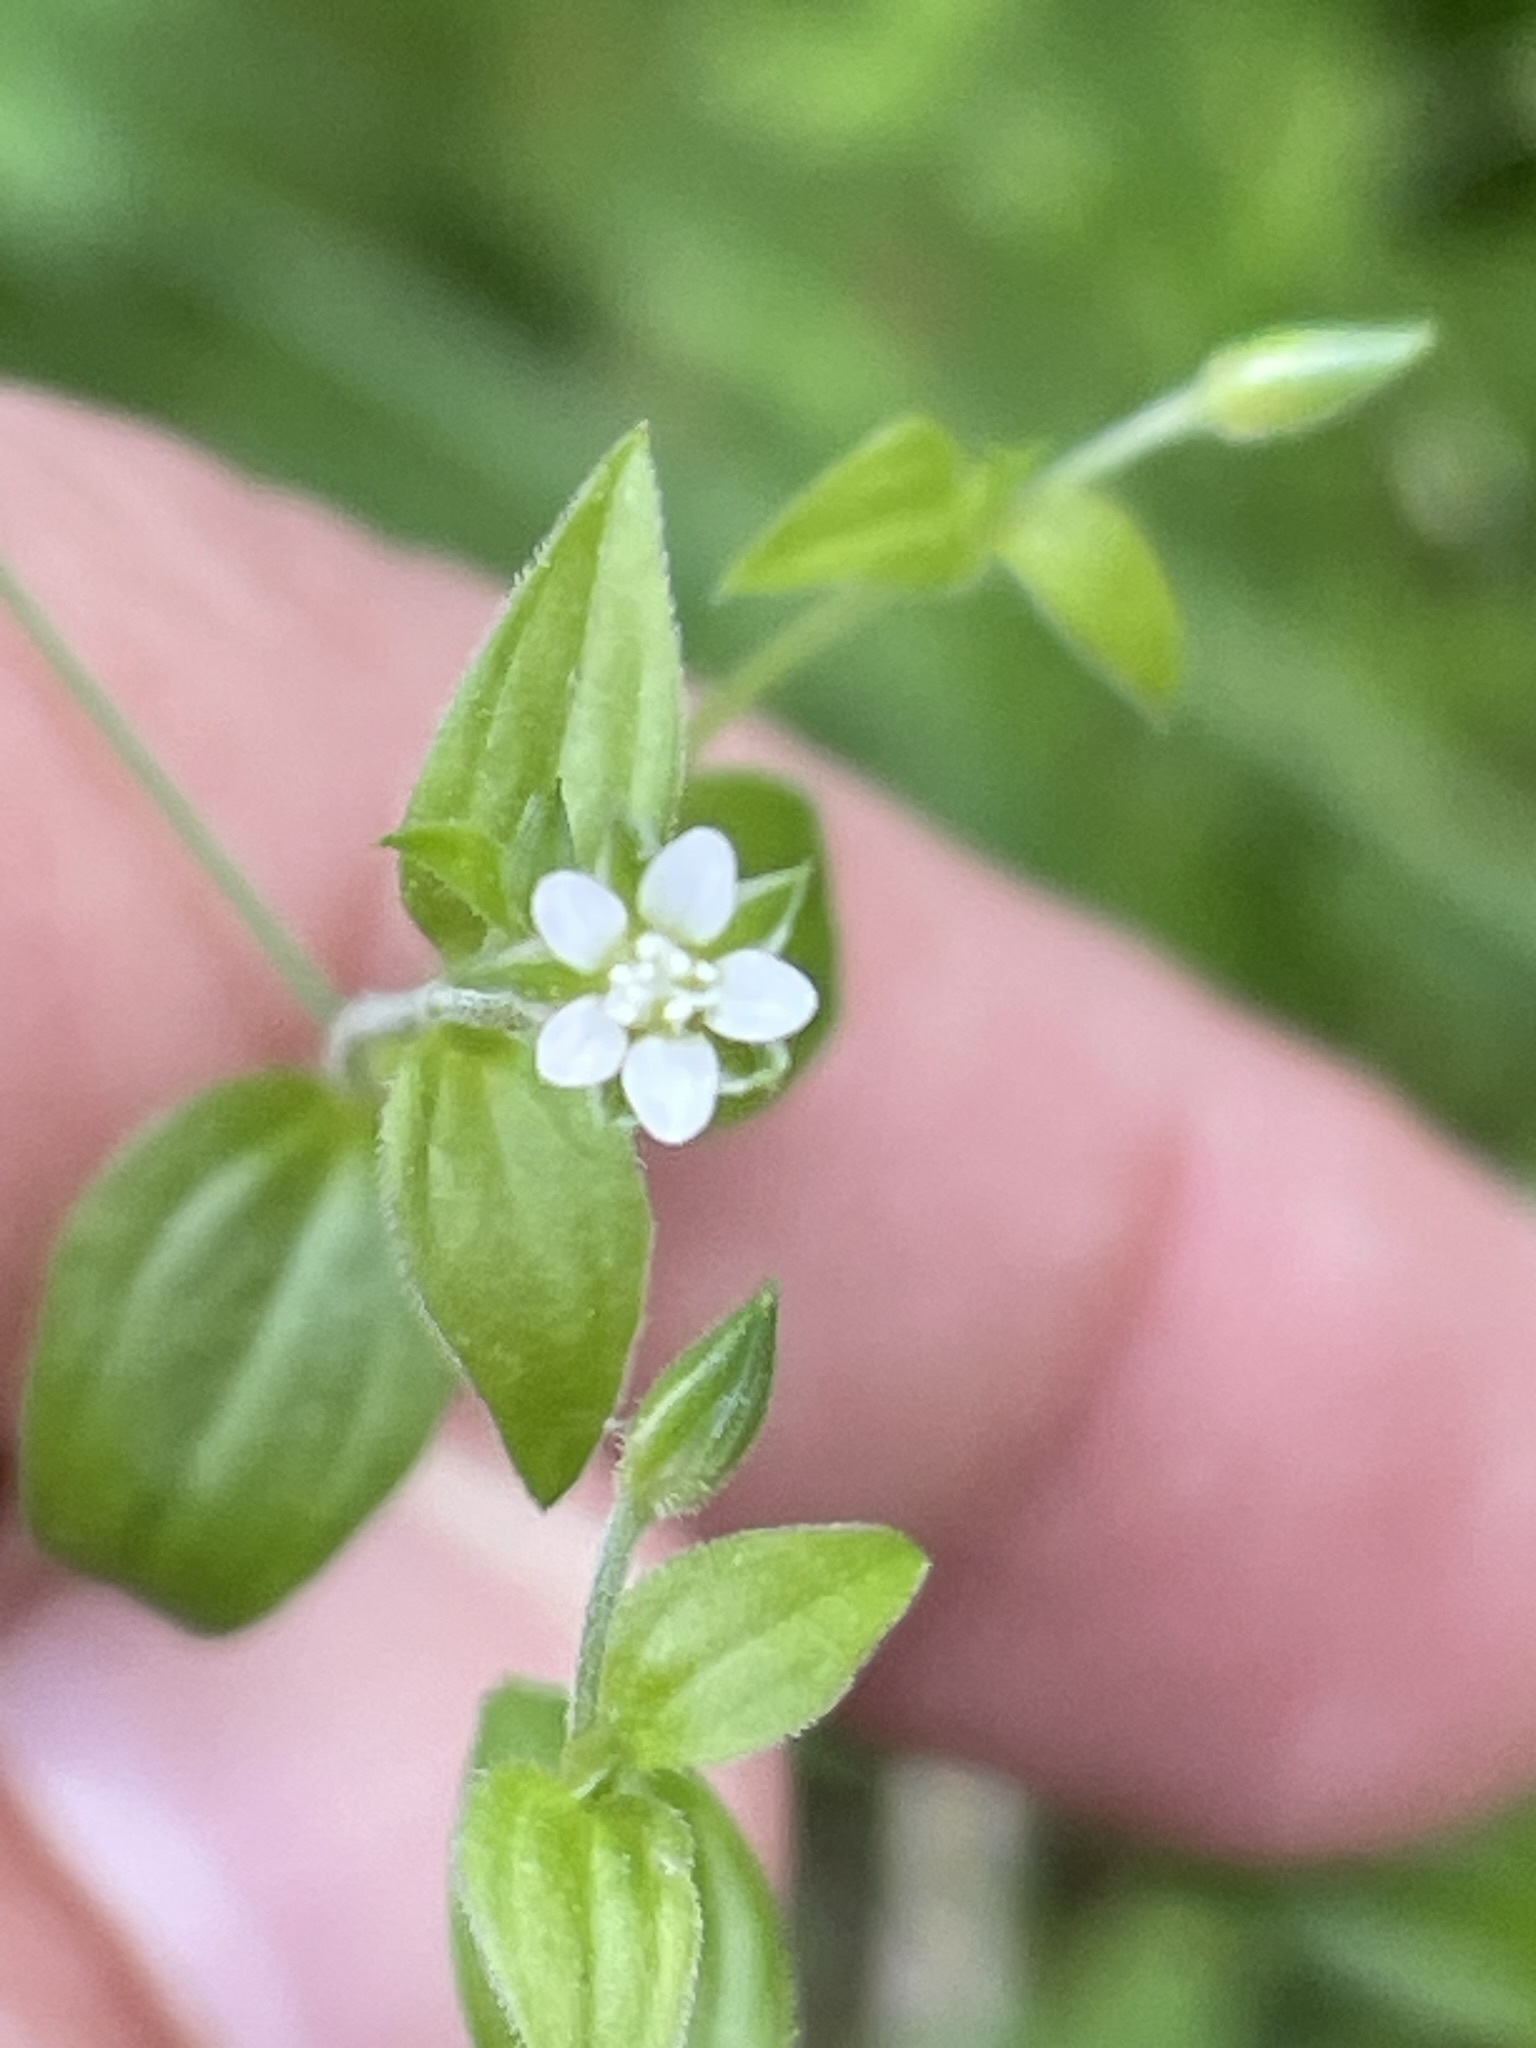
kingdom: Plantae
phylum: Tracheophyta
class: Magnoliopsida
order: Caryophyllales
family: Caryophyllaceae
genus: Moehringia
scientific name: Moehringia trinervia
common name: Three-nerved sandwort
